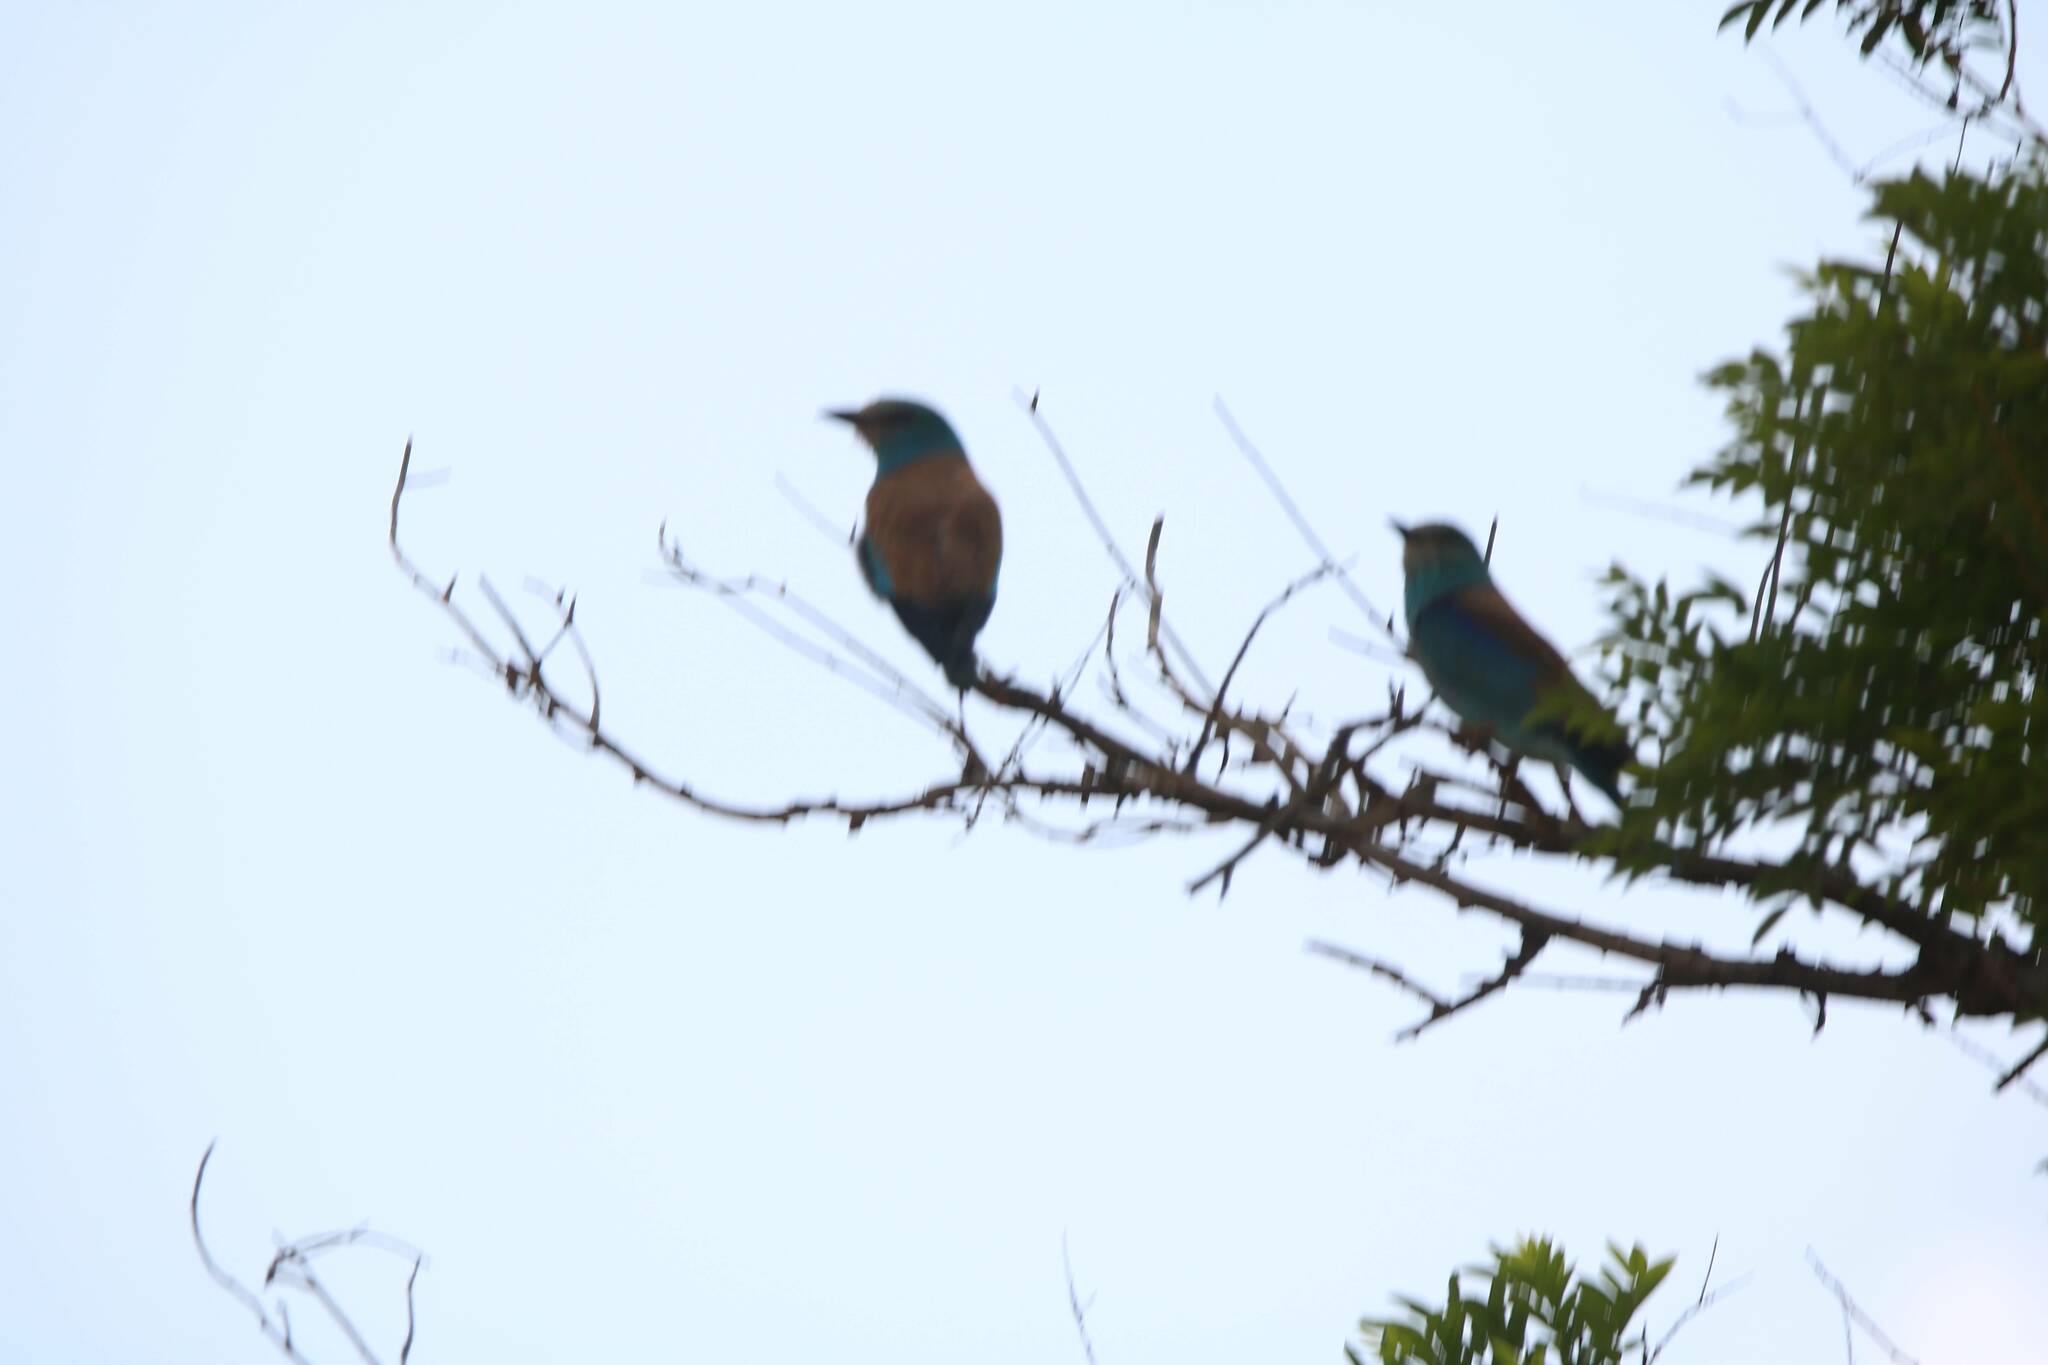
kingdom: Animalia
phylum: Chordata
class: Aves
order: Coraciiformes
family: Coraciidae
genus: Coracias
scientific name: Coracias garrulus
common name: European roller
